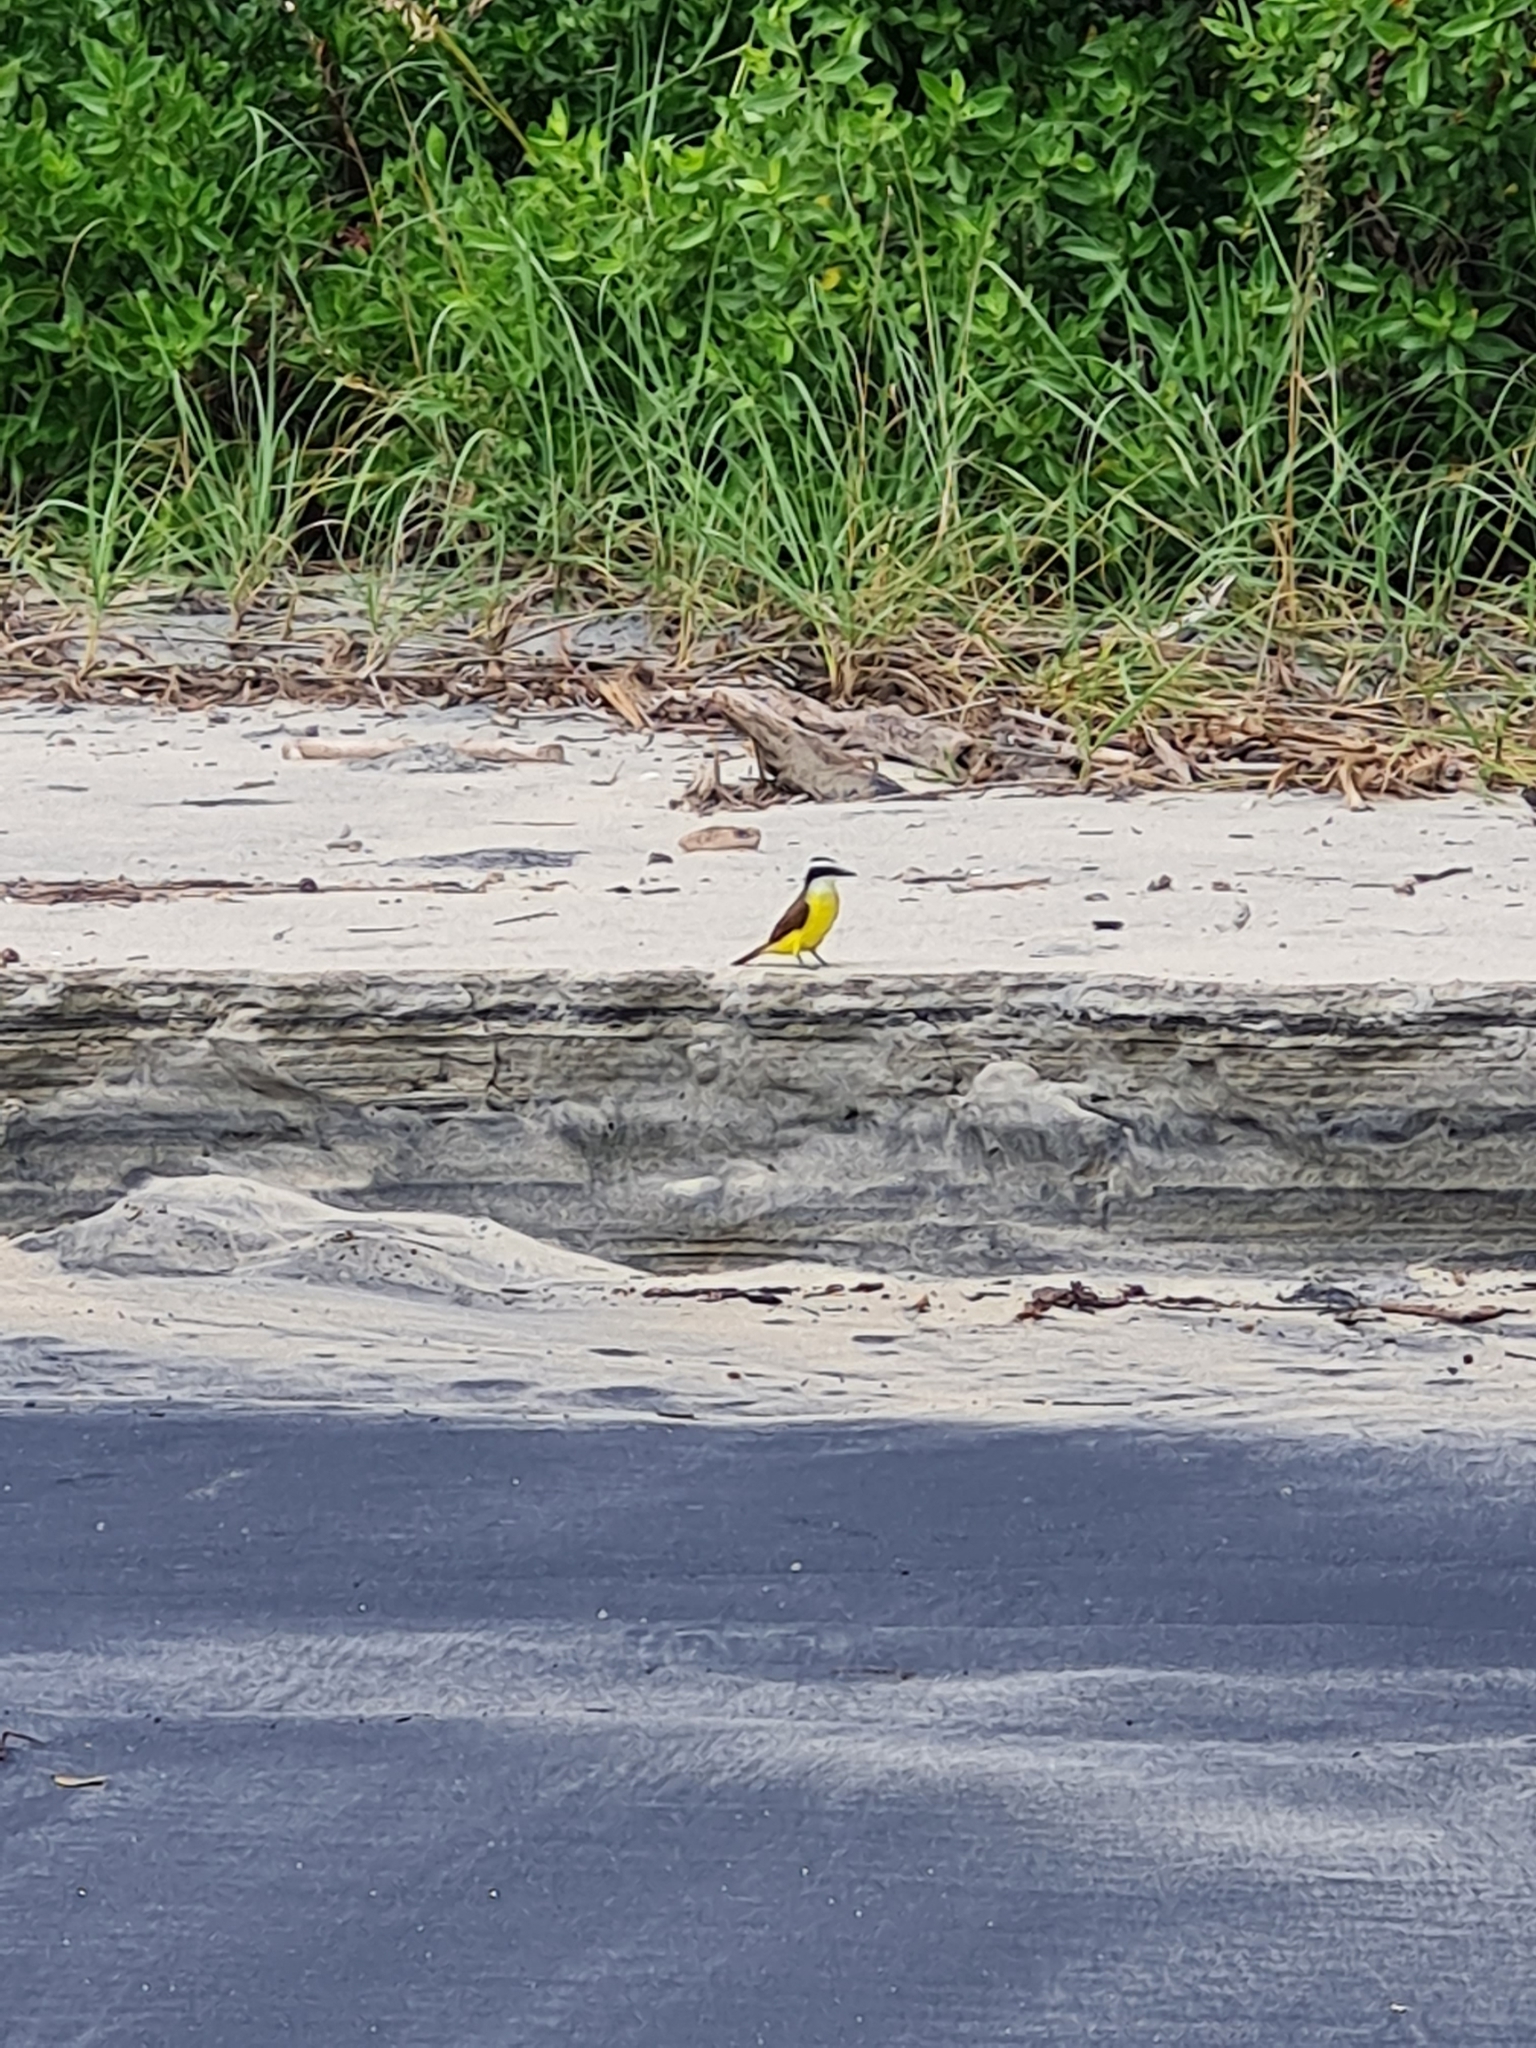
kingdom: Animalia
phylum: Chordata
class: Aves
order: Passeriformes
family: Tyrannidae
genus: Pitangus
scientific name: Pitangus sulphuratus
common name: Great kiskadee
